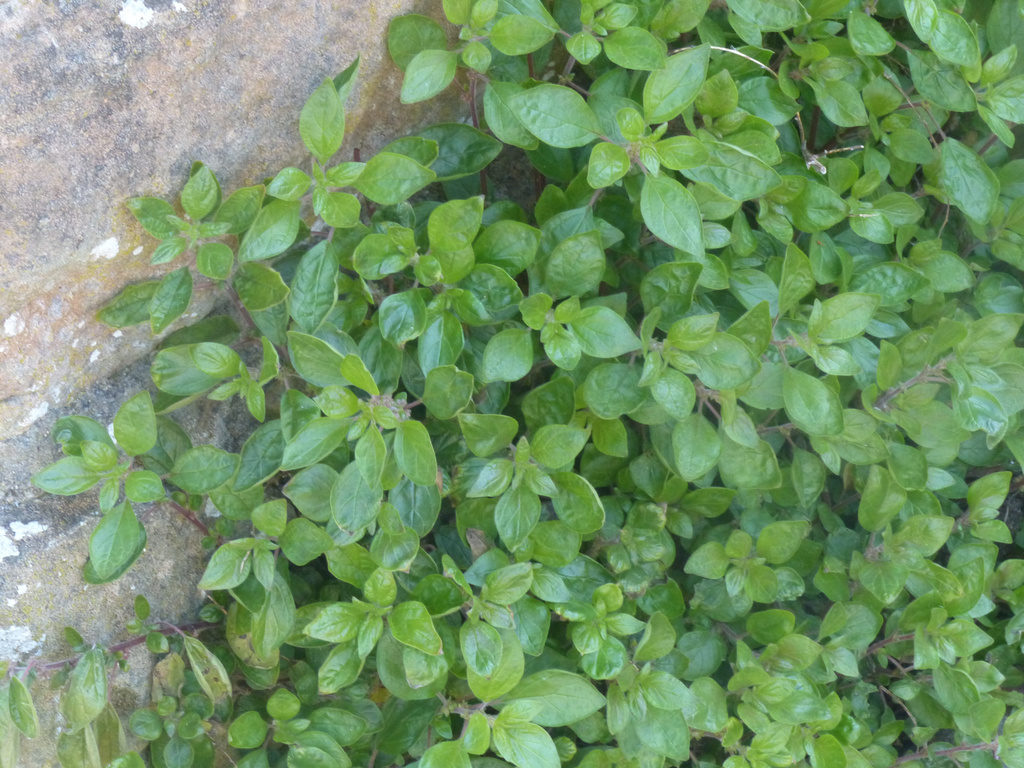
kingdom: Plantae
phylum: Tracheophyta
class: Magnoliopsida
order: Rosales
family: Urticaceae
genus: Parietaria
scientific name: Parietaria judaica
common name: Pellitory-of-the-wall
